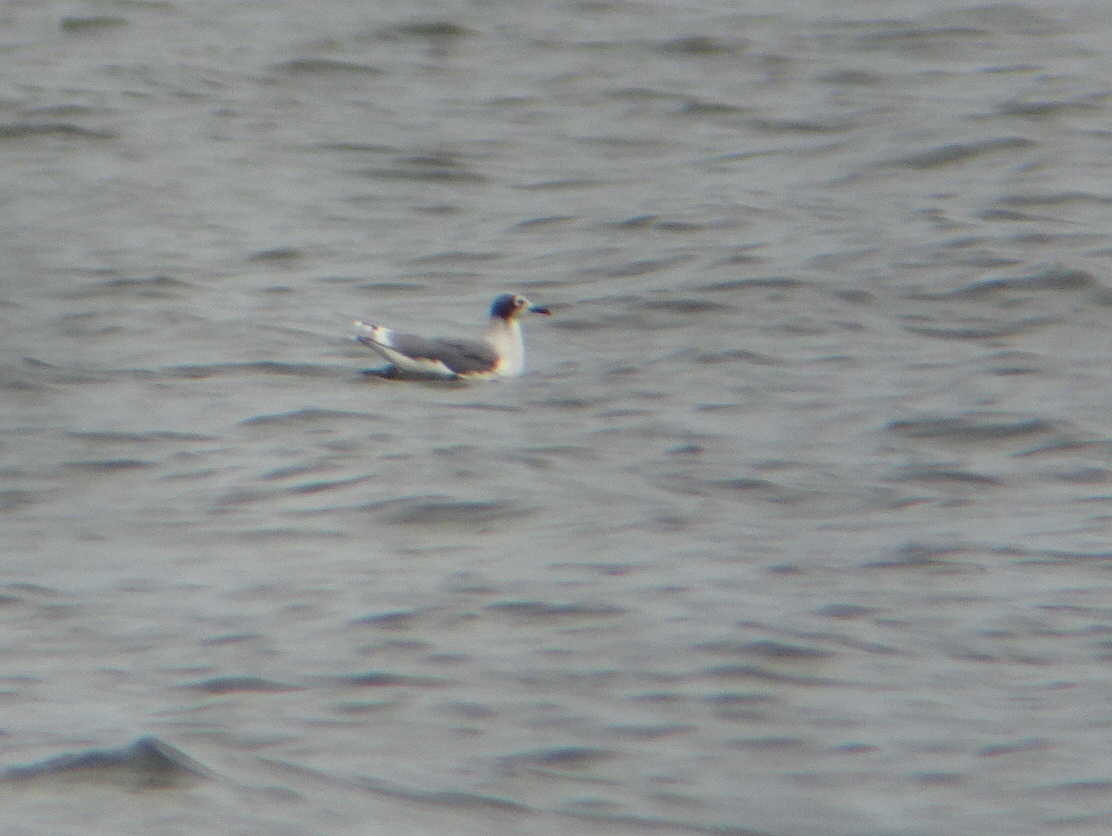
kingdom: Animalia
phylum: Chordata
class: Aves
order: Charadriiformes
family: Laridae
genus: Leucophaeus
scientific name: Leucophaeus pipixcan
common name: Franklin's gull
